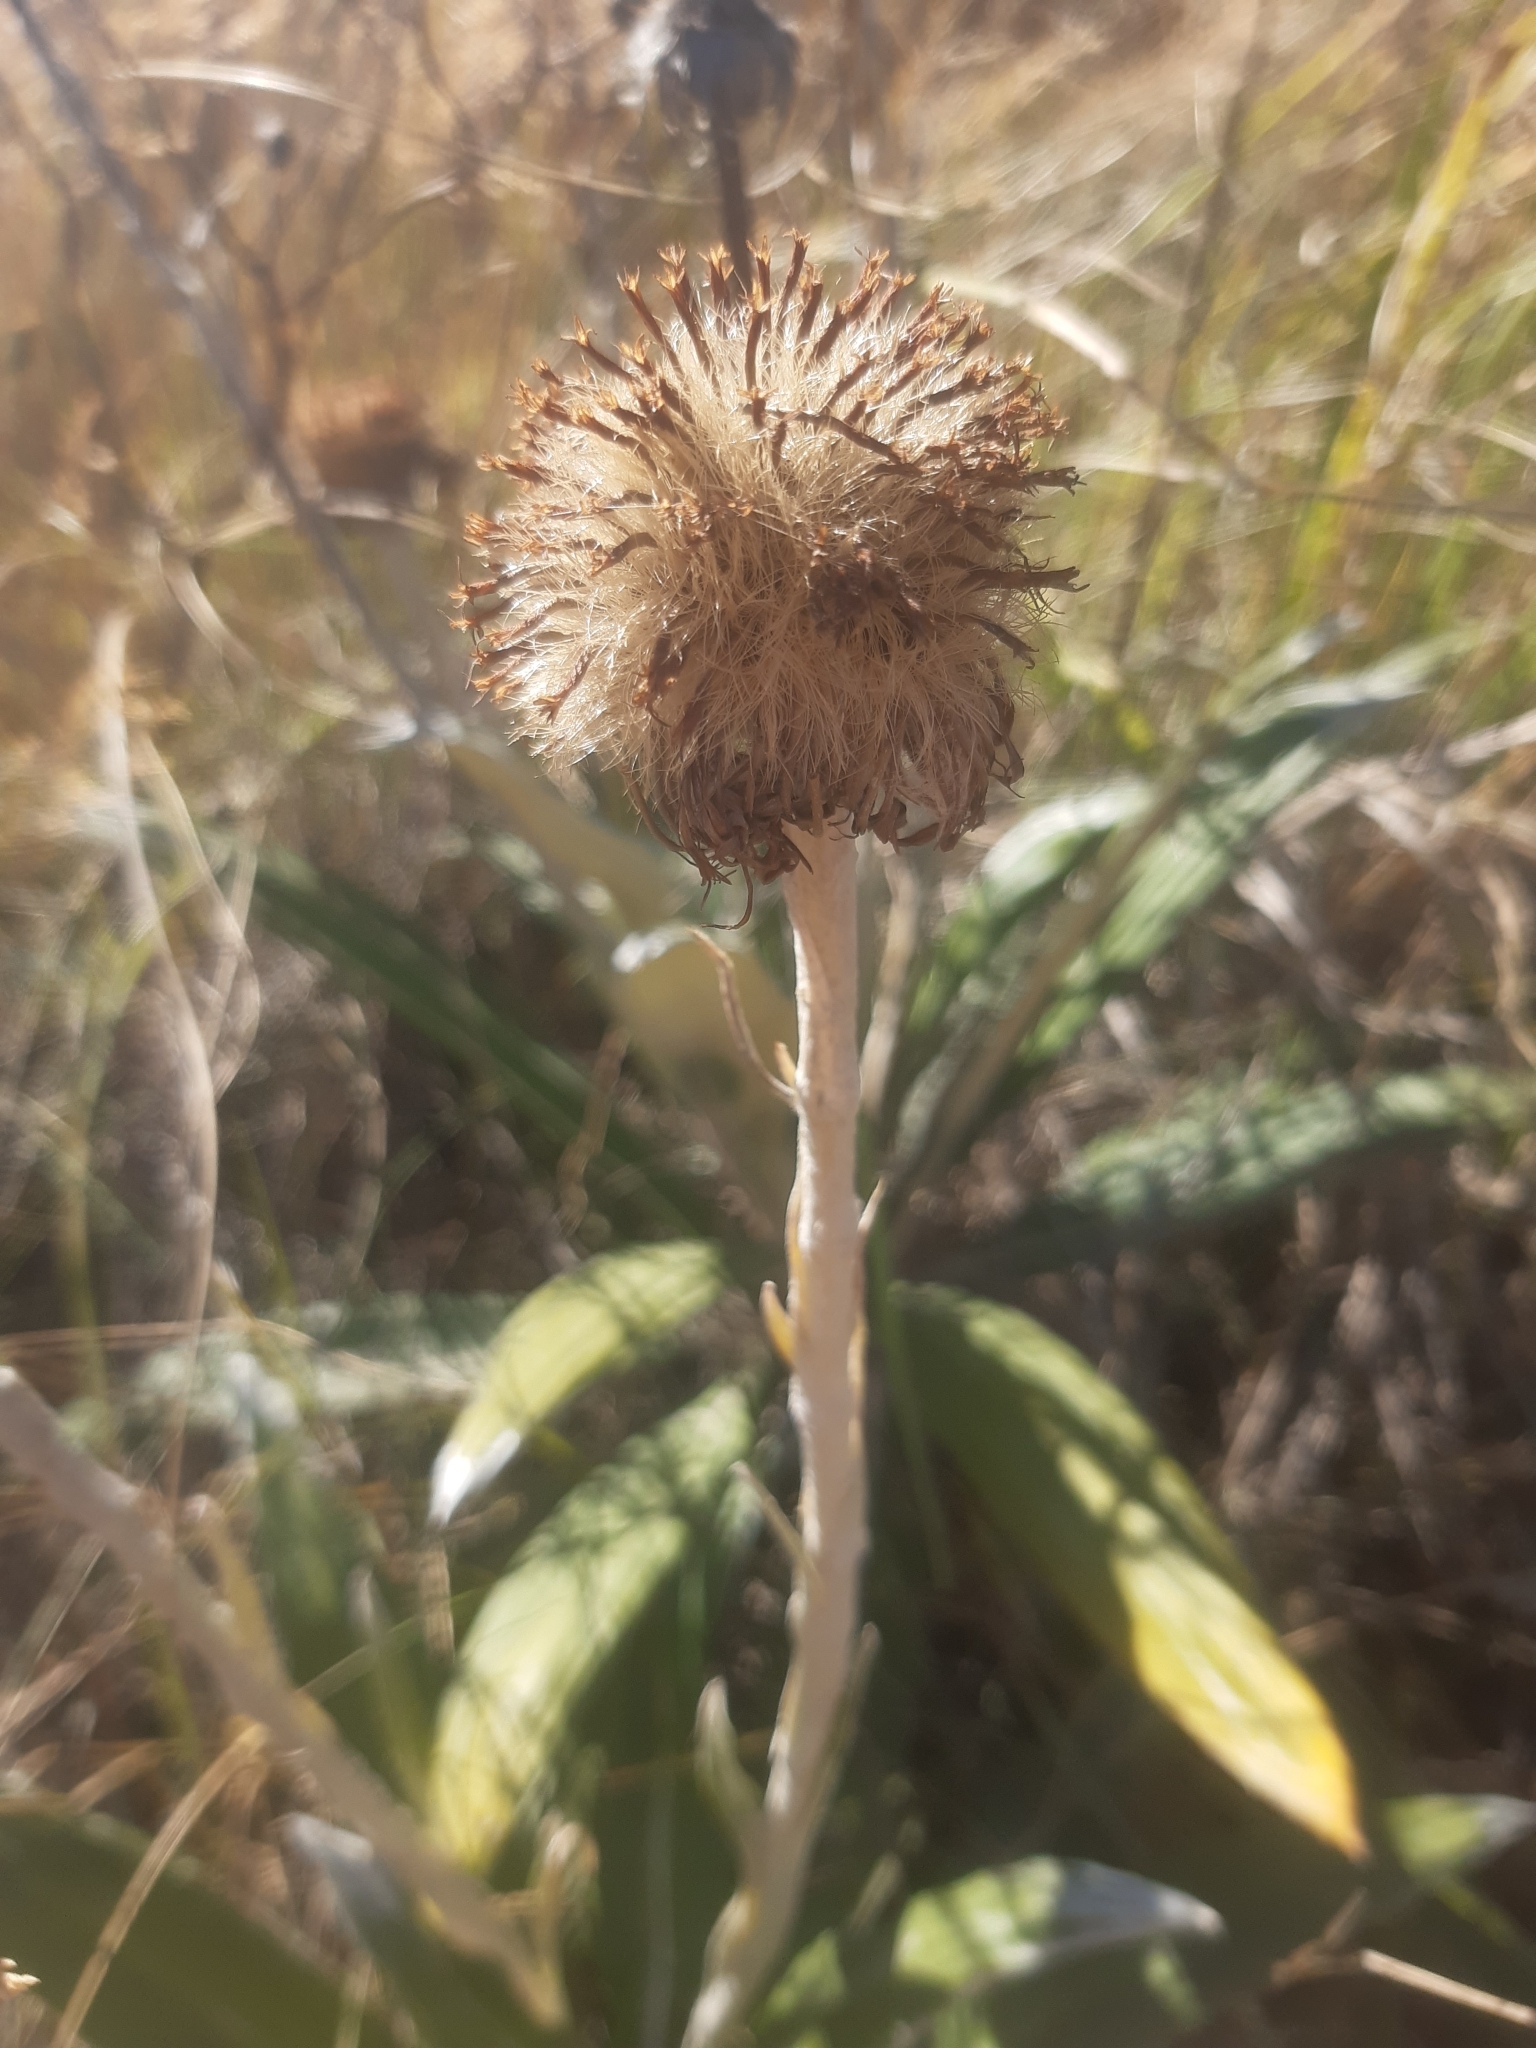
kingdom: Plantae
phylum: Tracheophyta
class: Magnoliopsida
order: Asterales
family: Asteraceae
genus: Celmisia
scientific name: Celmisia spectabilis
